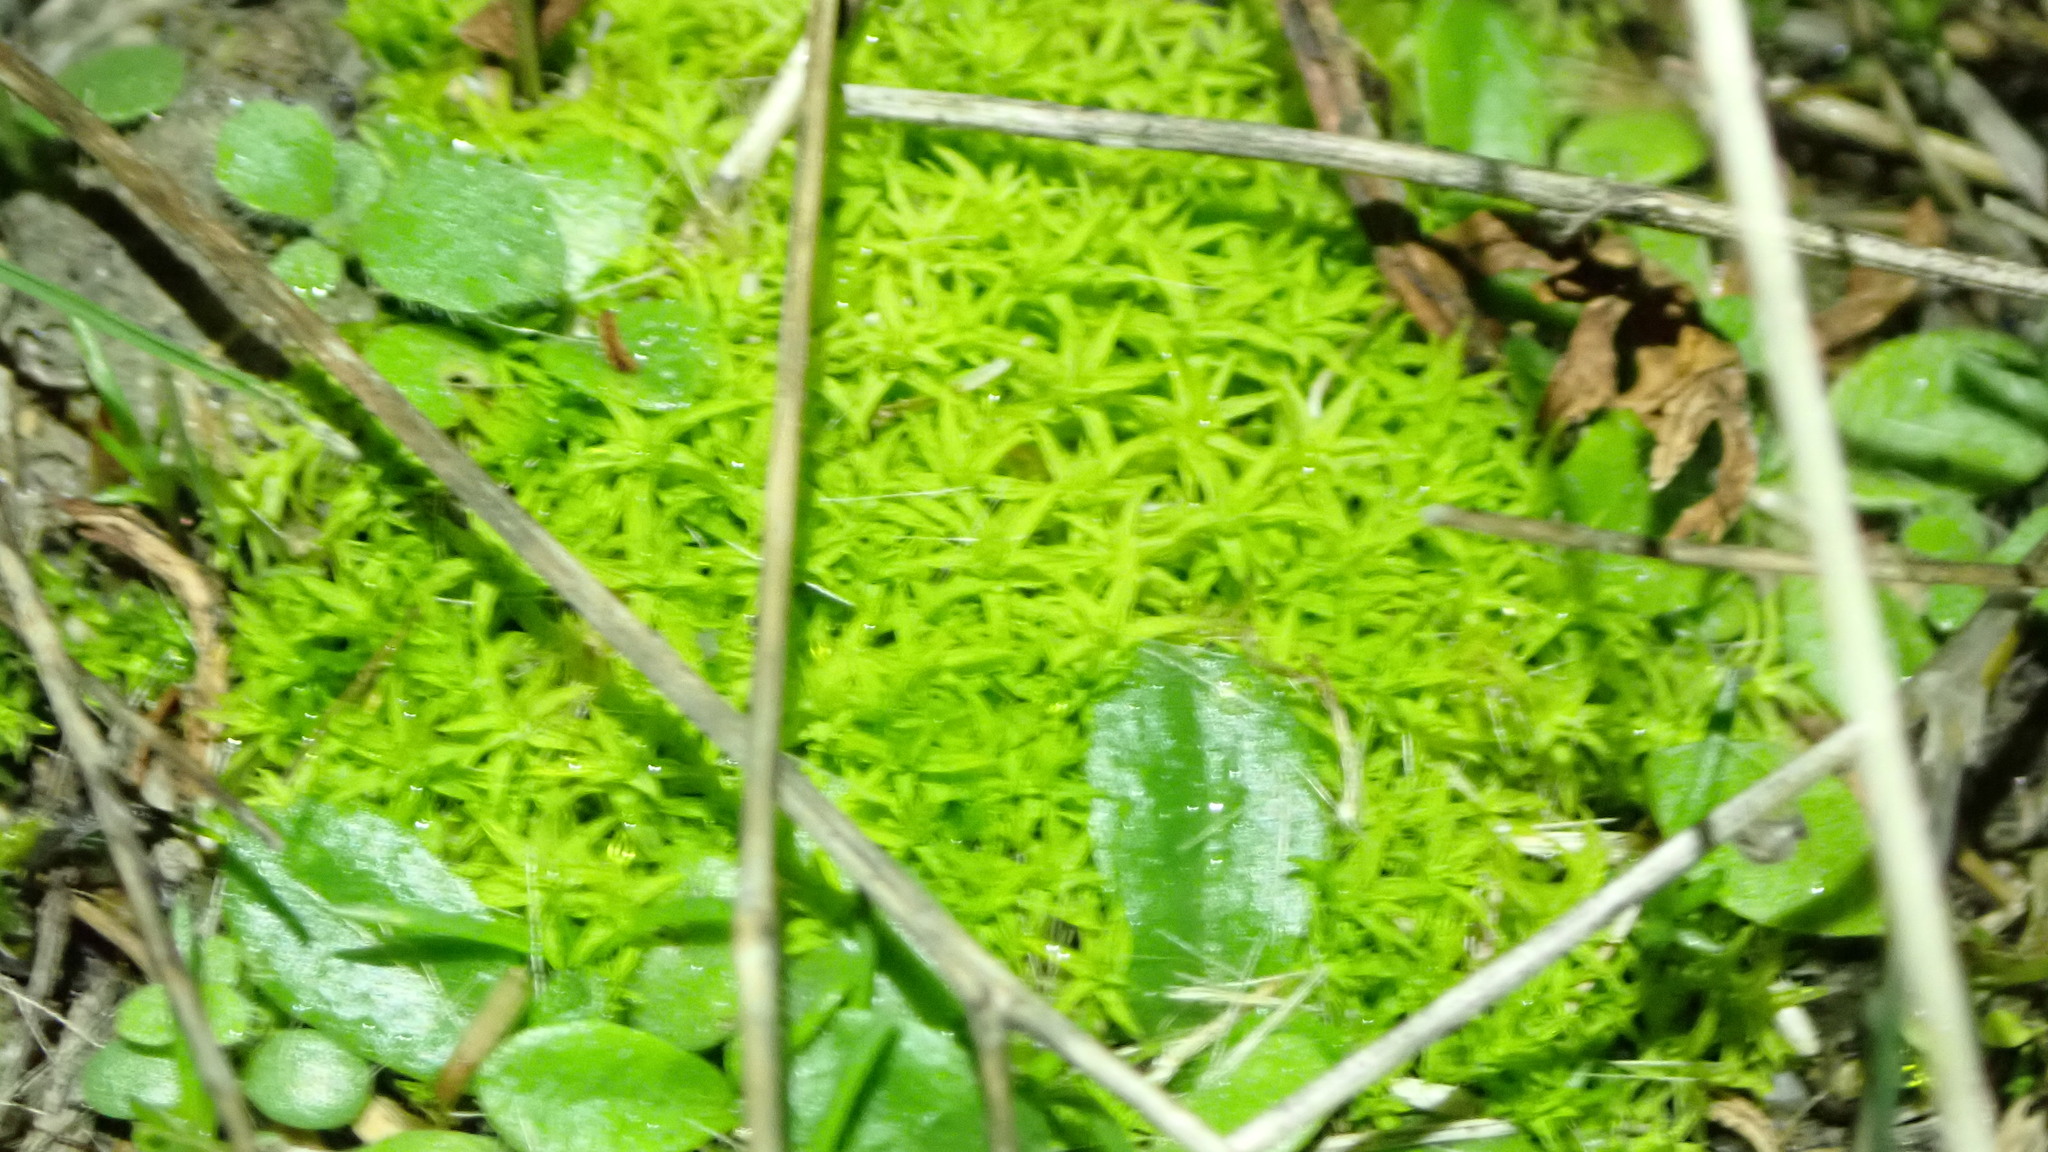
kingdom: Plantae
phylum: Bryophyta
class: Bryopsida
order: Pottiales
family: Pottiaceae
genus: Pleurochaete
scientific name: Pleurochaete squarrosa
